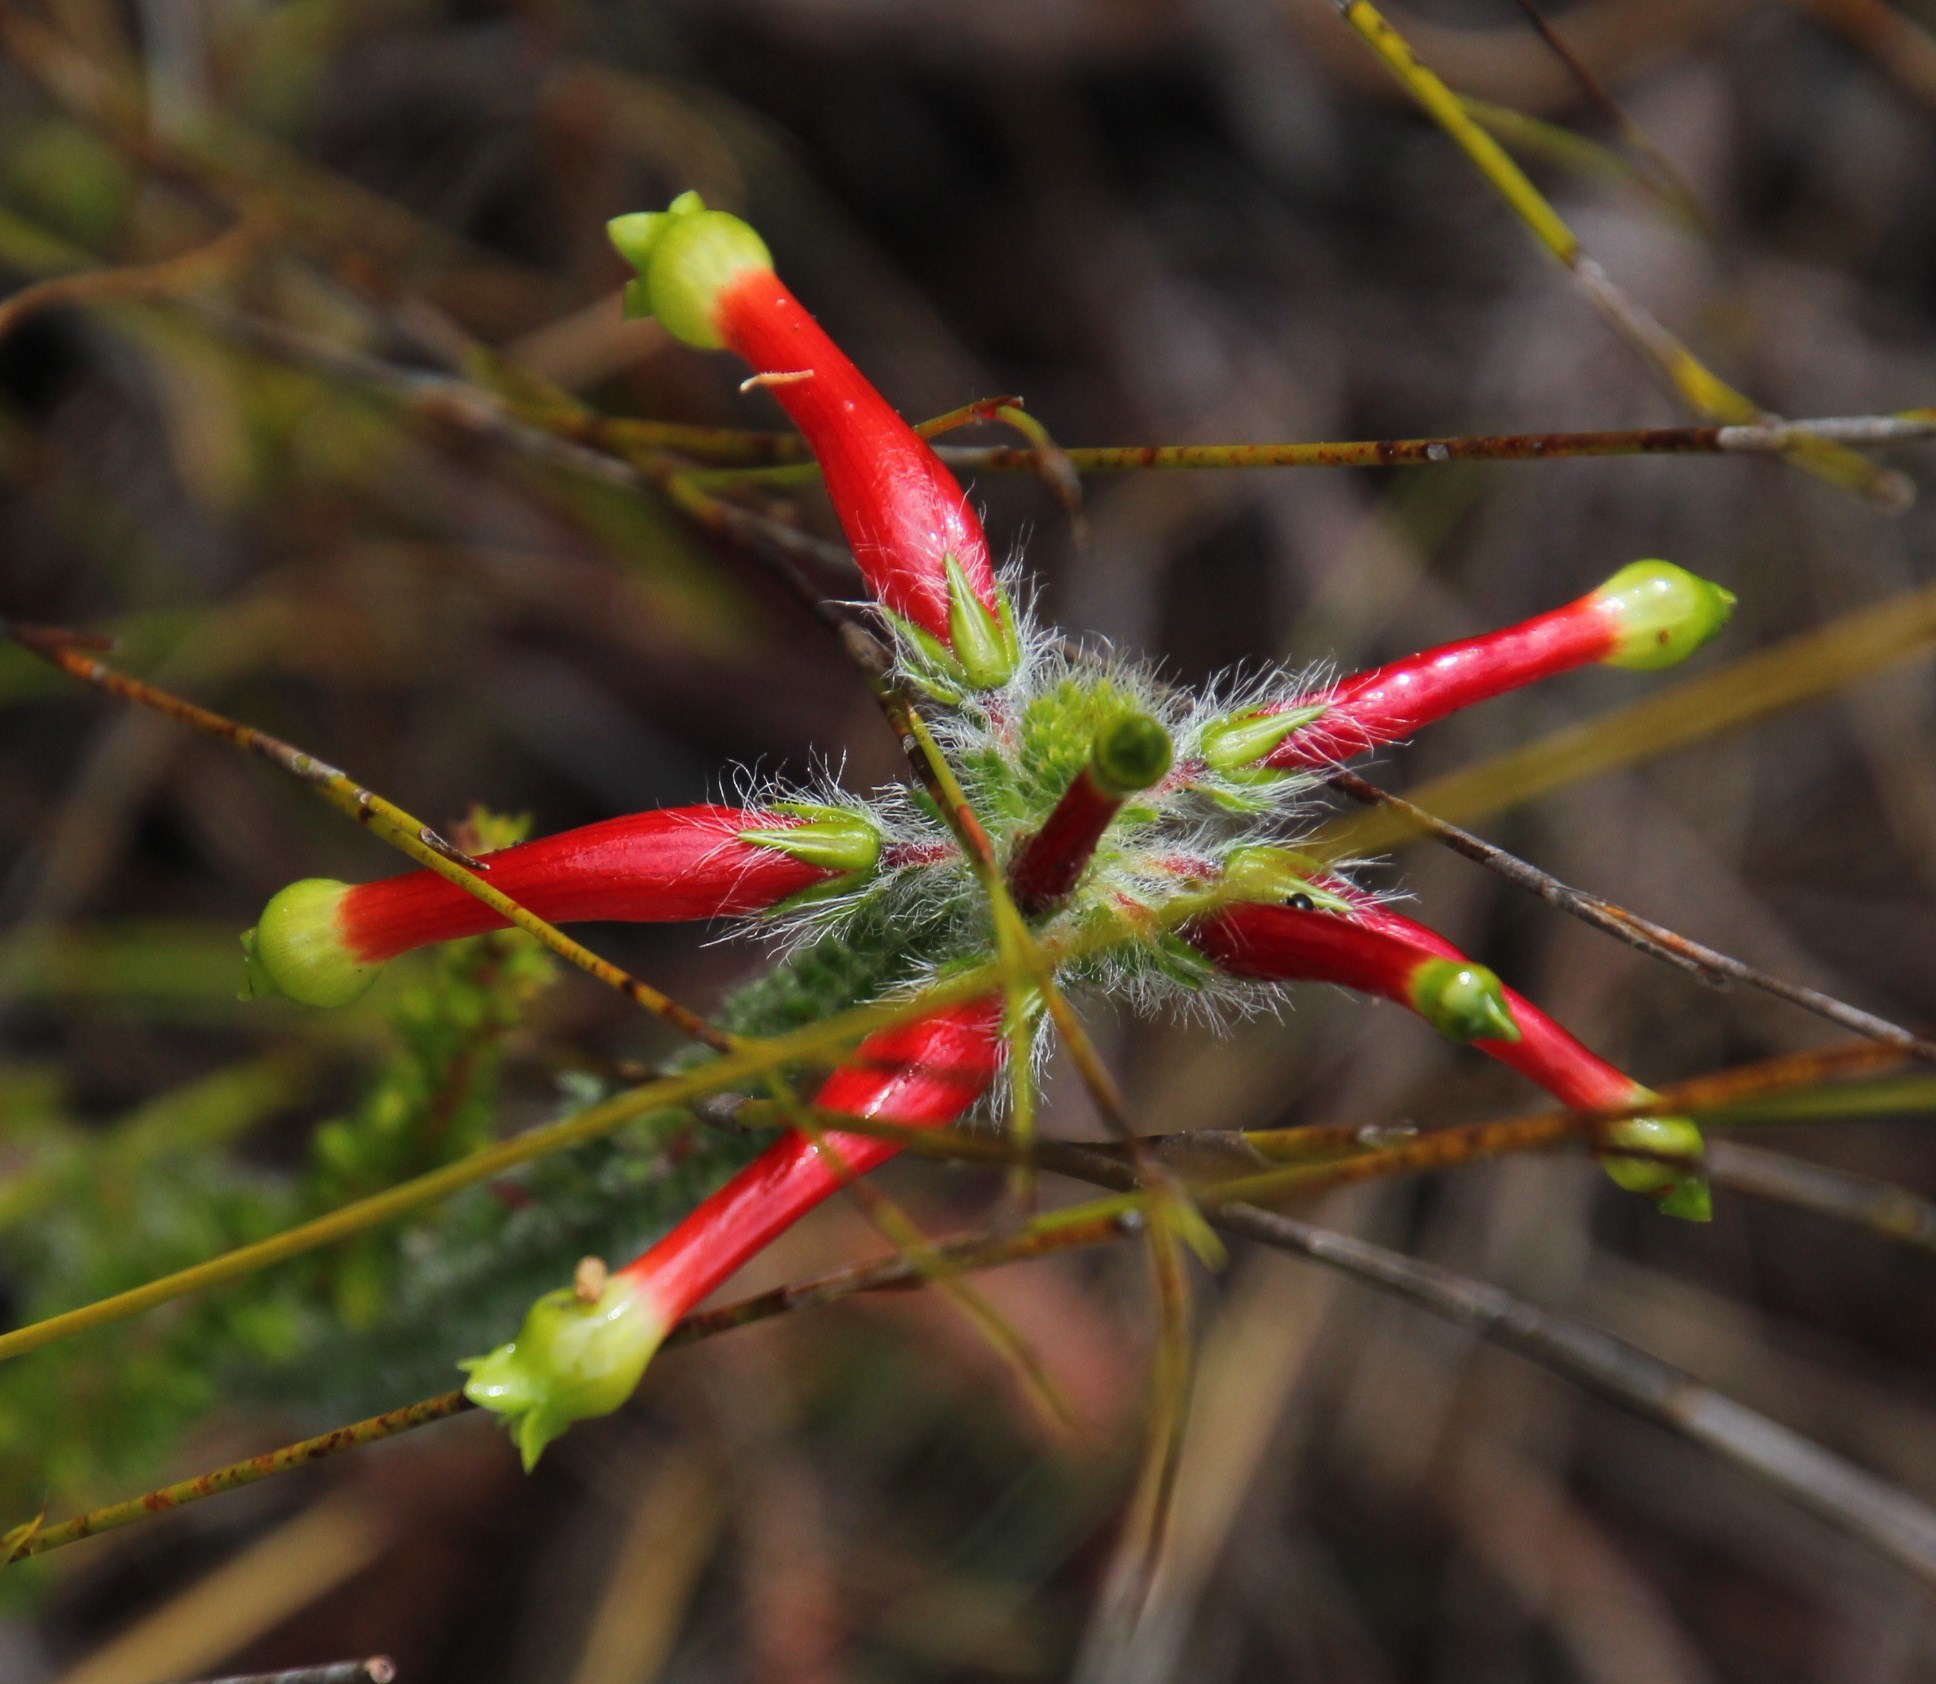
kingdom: Plantae
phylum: Tracheophyta
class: Magnoliopsida
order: Ericales
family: Ericaceae
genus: Erica
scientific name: Erica massonii
